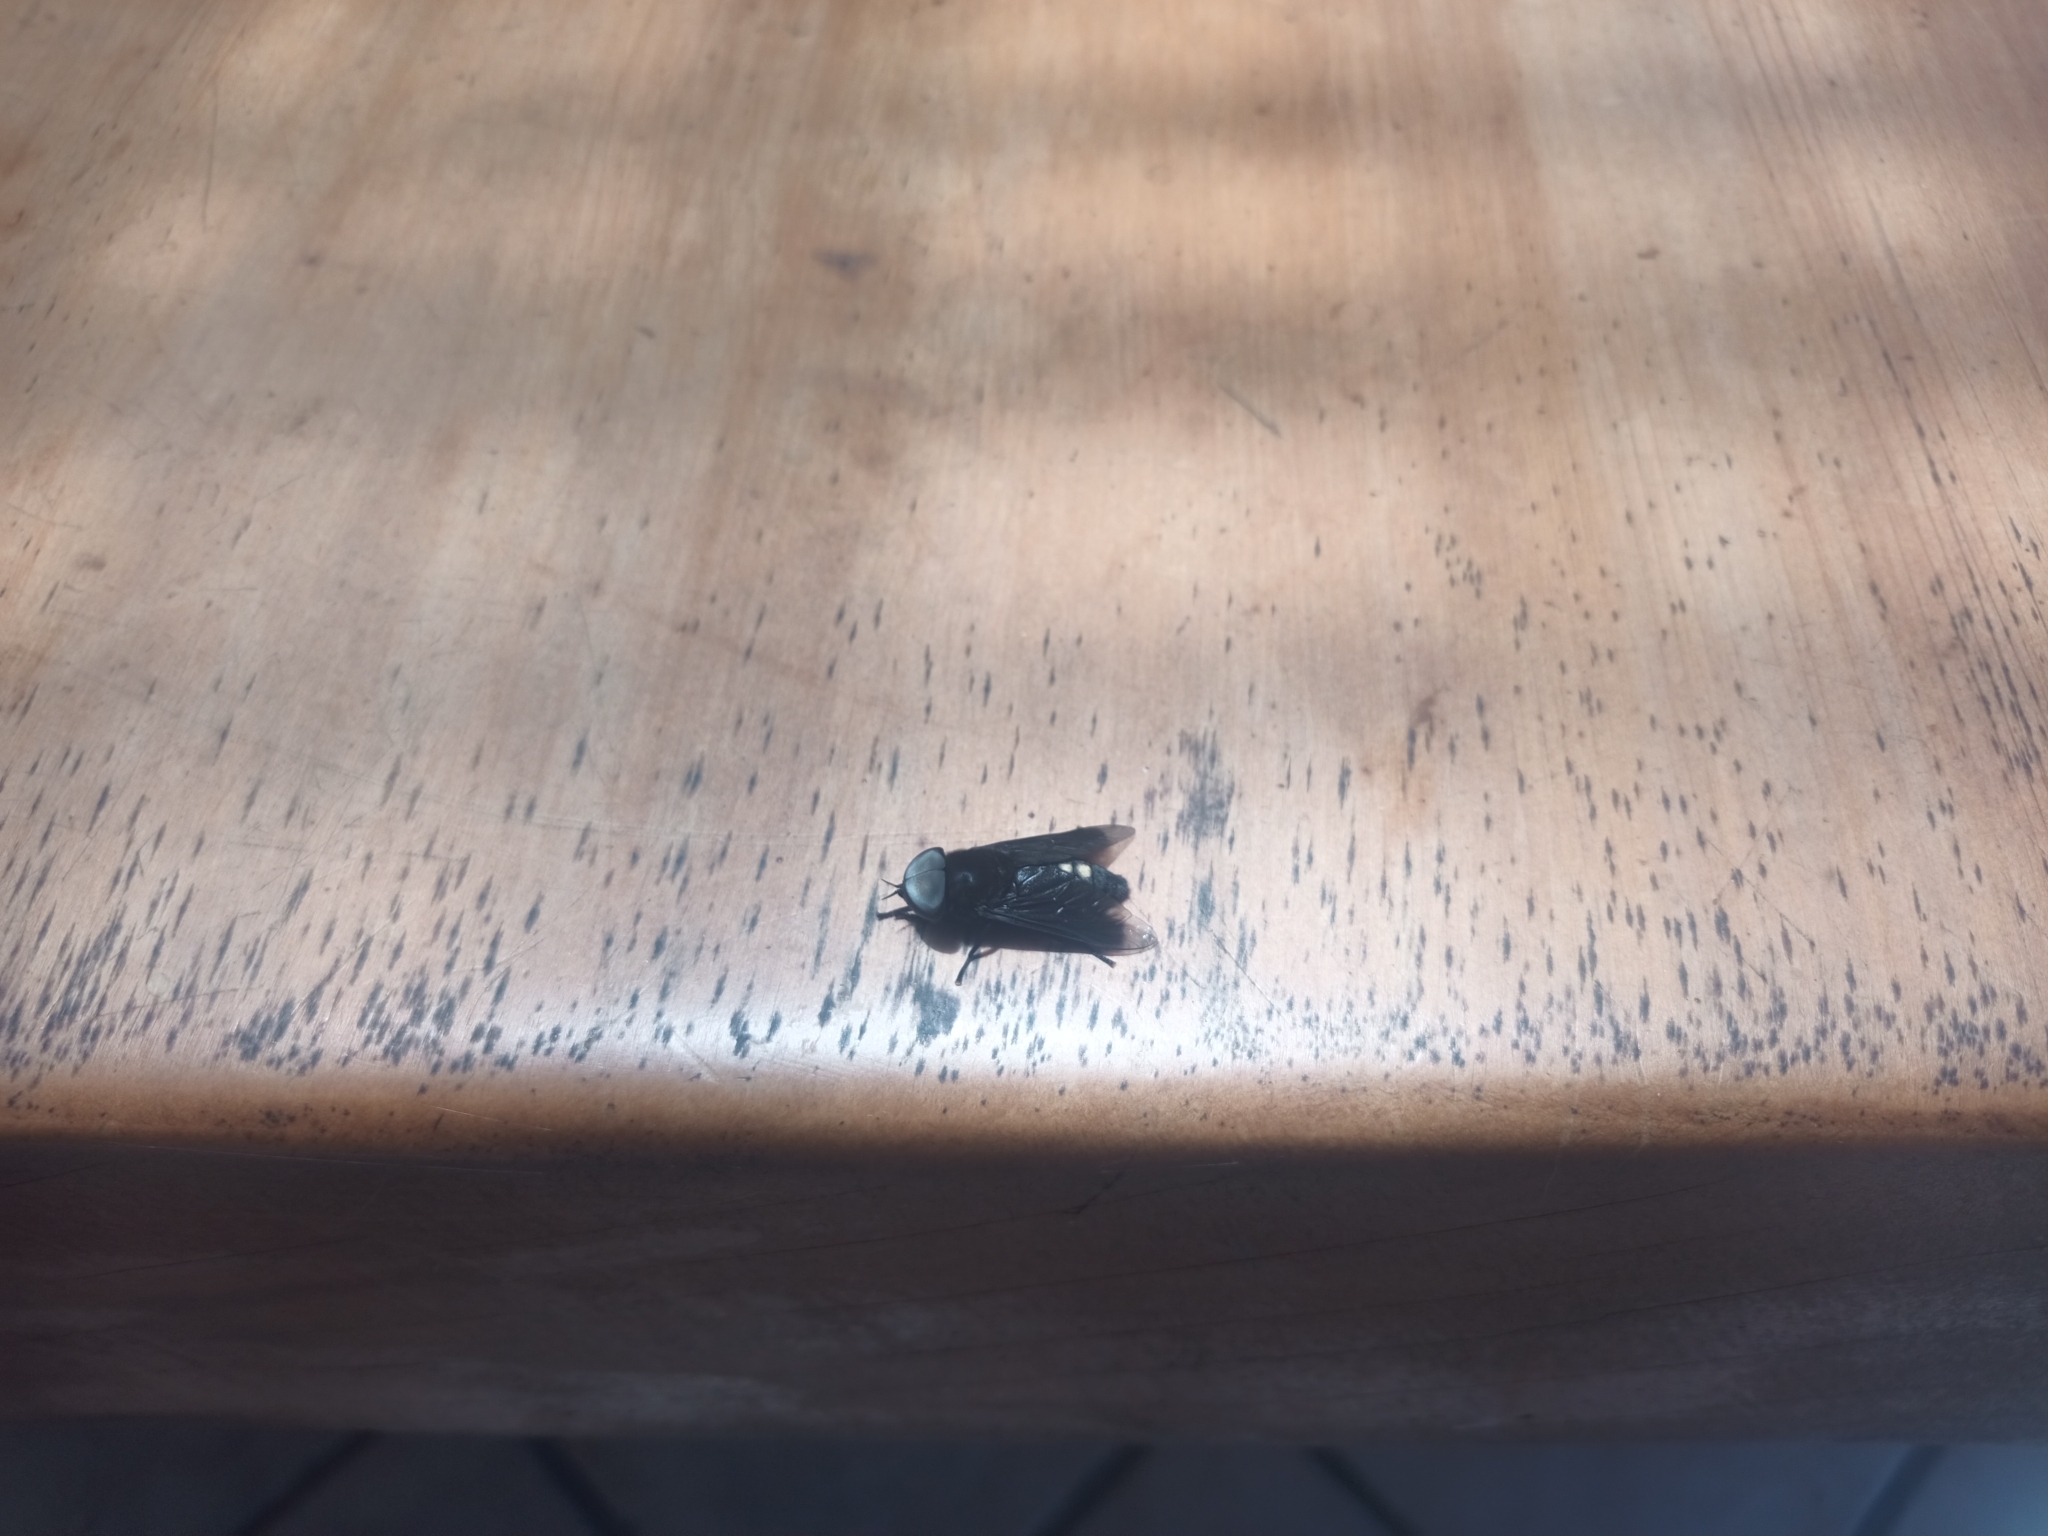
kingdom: Animalia
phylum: Arthropoda
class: Insecta
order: Diptera
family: Tabanidae
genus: Tabanus
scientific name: Tabanus biguttatus
